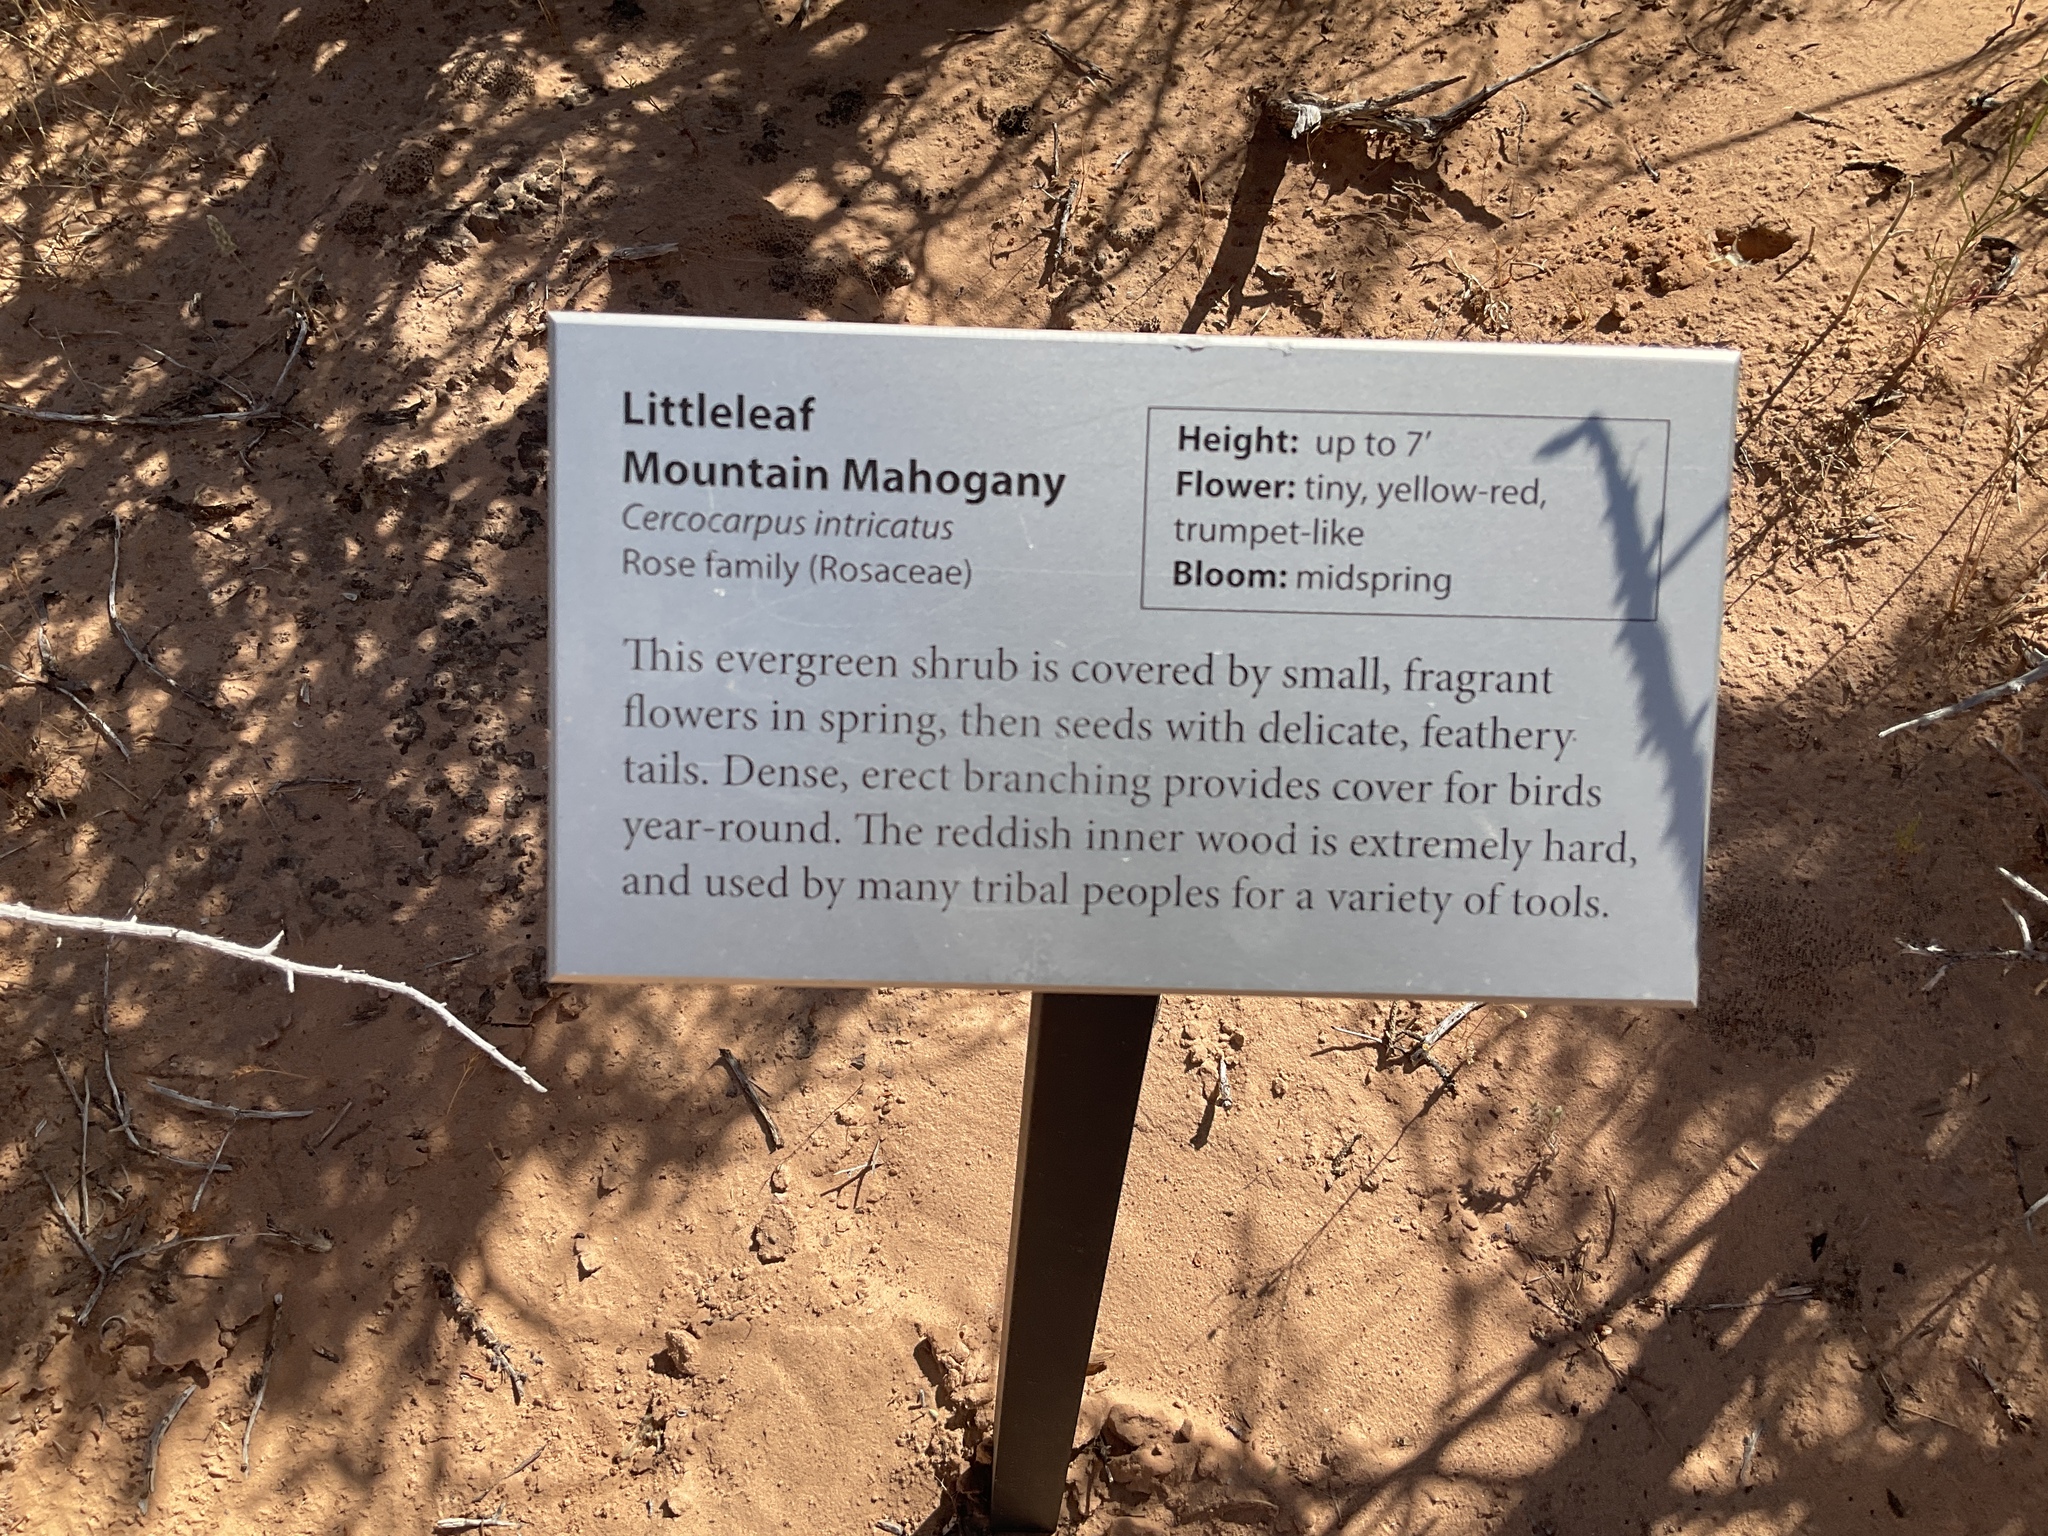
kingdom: Plantae
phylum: Tracheophyta
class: Magnoliopsida
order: Rosales
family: Rosaceae
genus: Cercocarpus
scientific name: Cercocarpus intricatus
